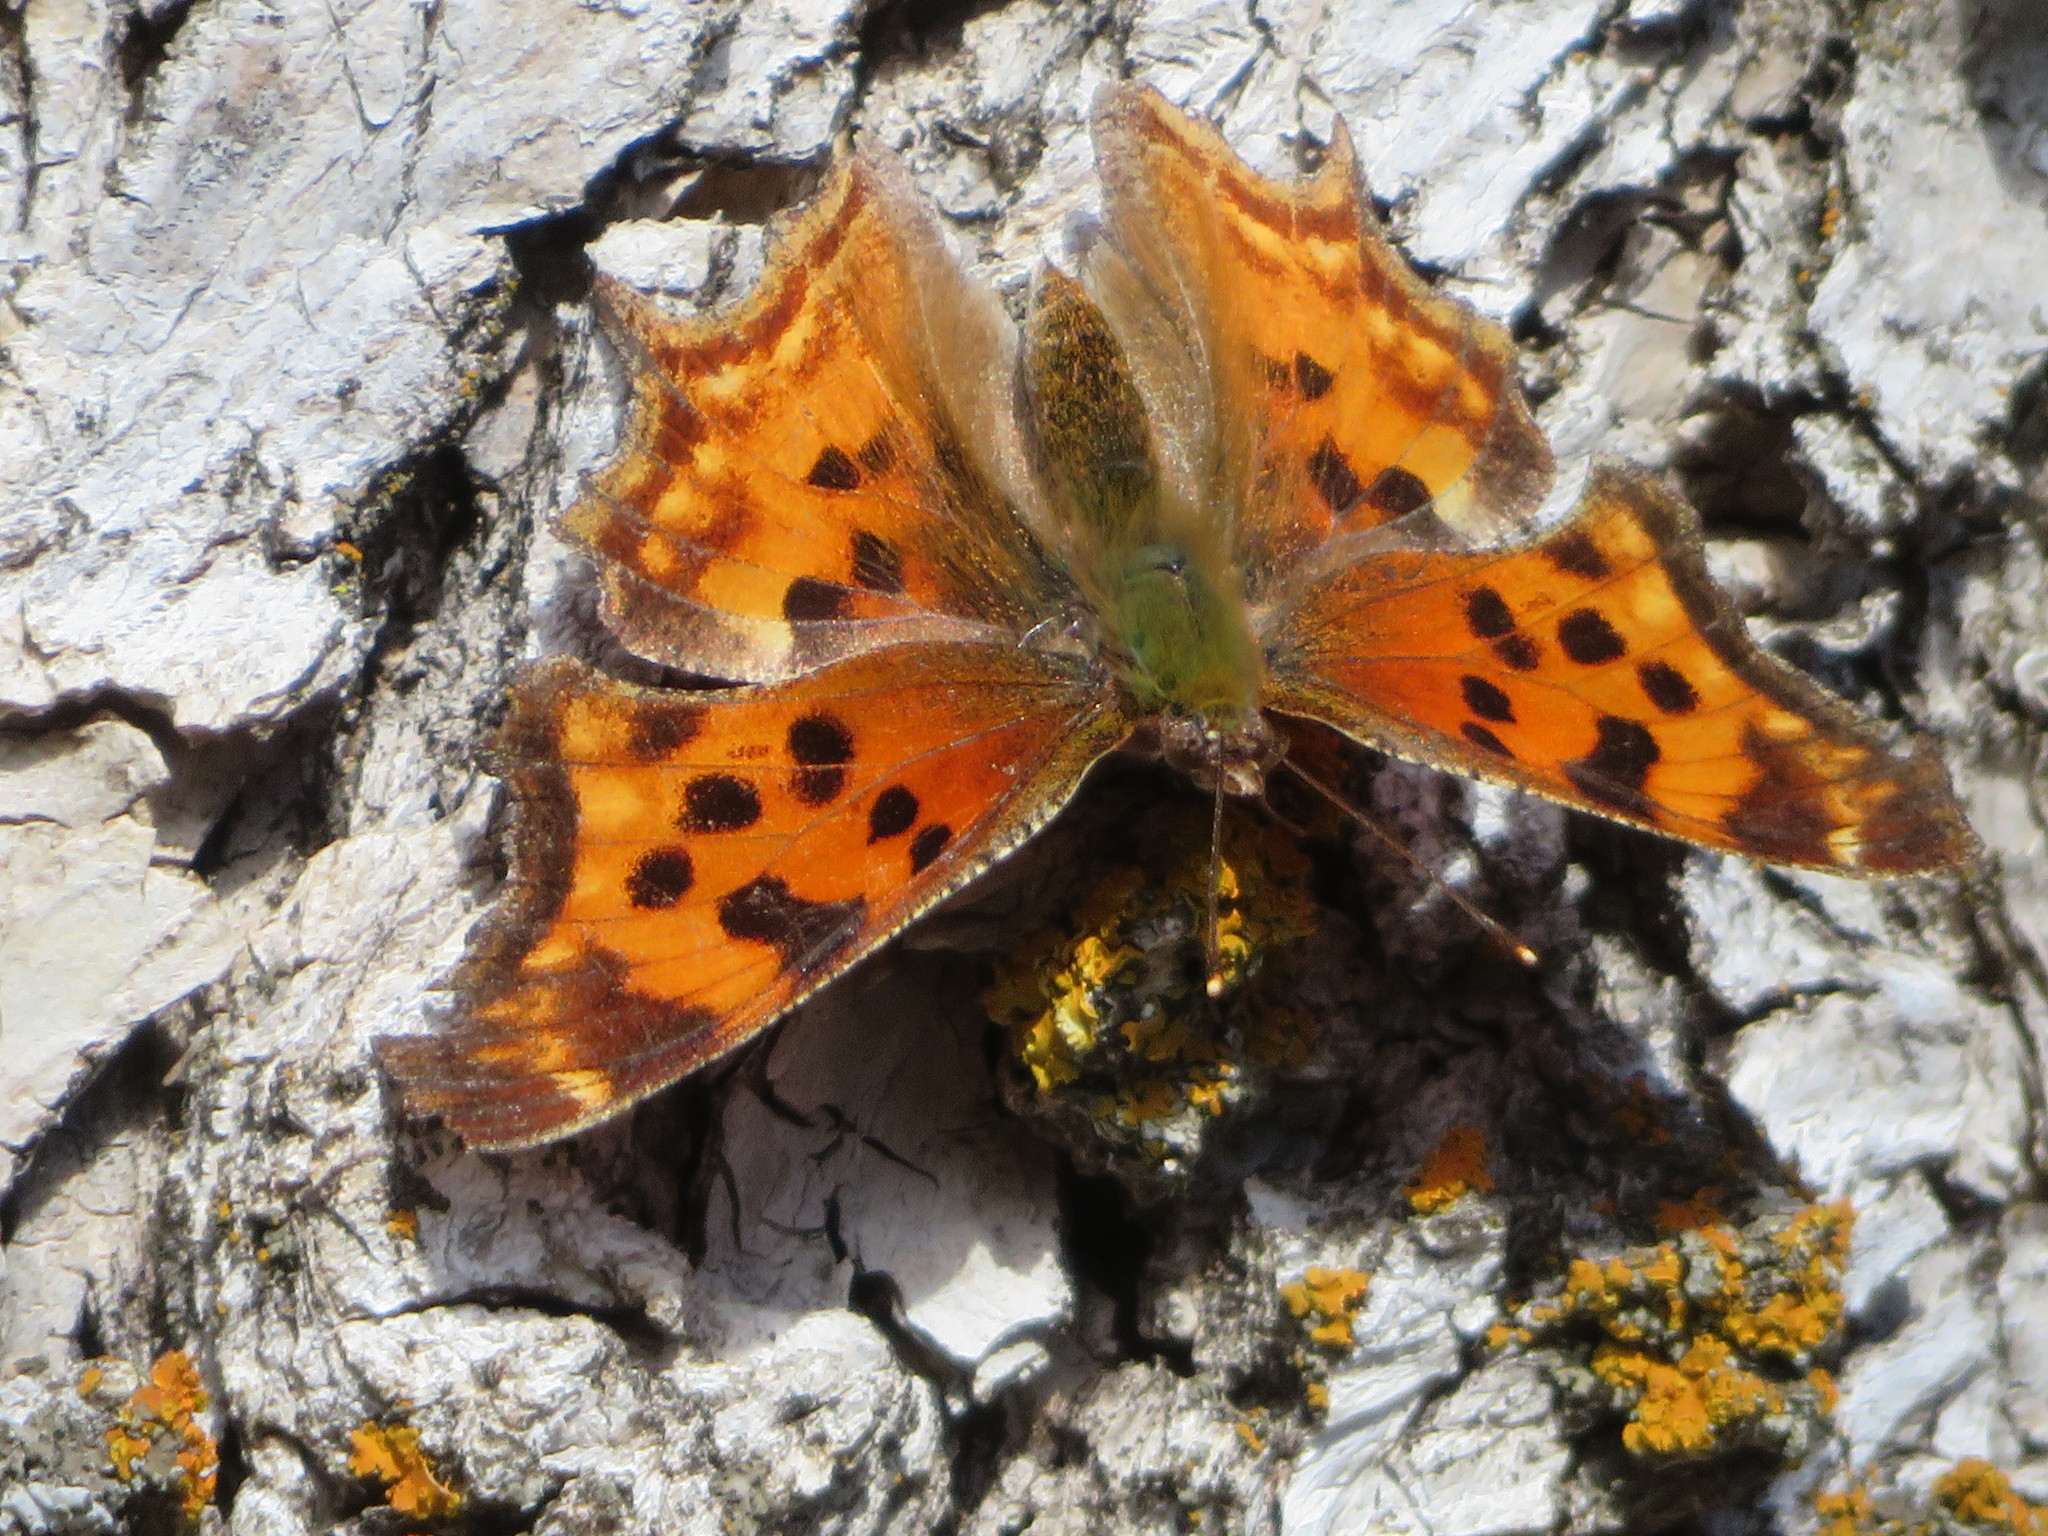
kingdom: Animalia
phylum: Arthropoda
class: Insecta
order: Lepidoptera
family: Nymphalidae
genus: Polygonia
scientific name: Polygonia satyrus
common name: Satyr angle wing
